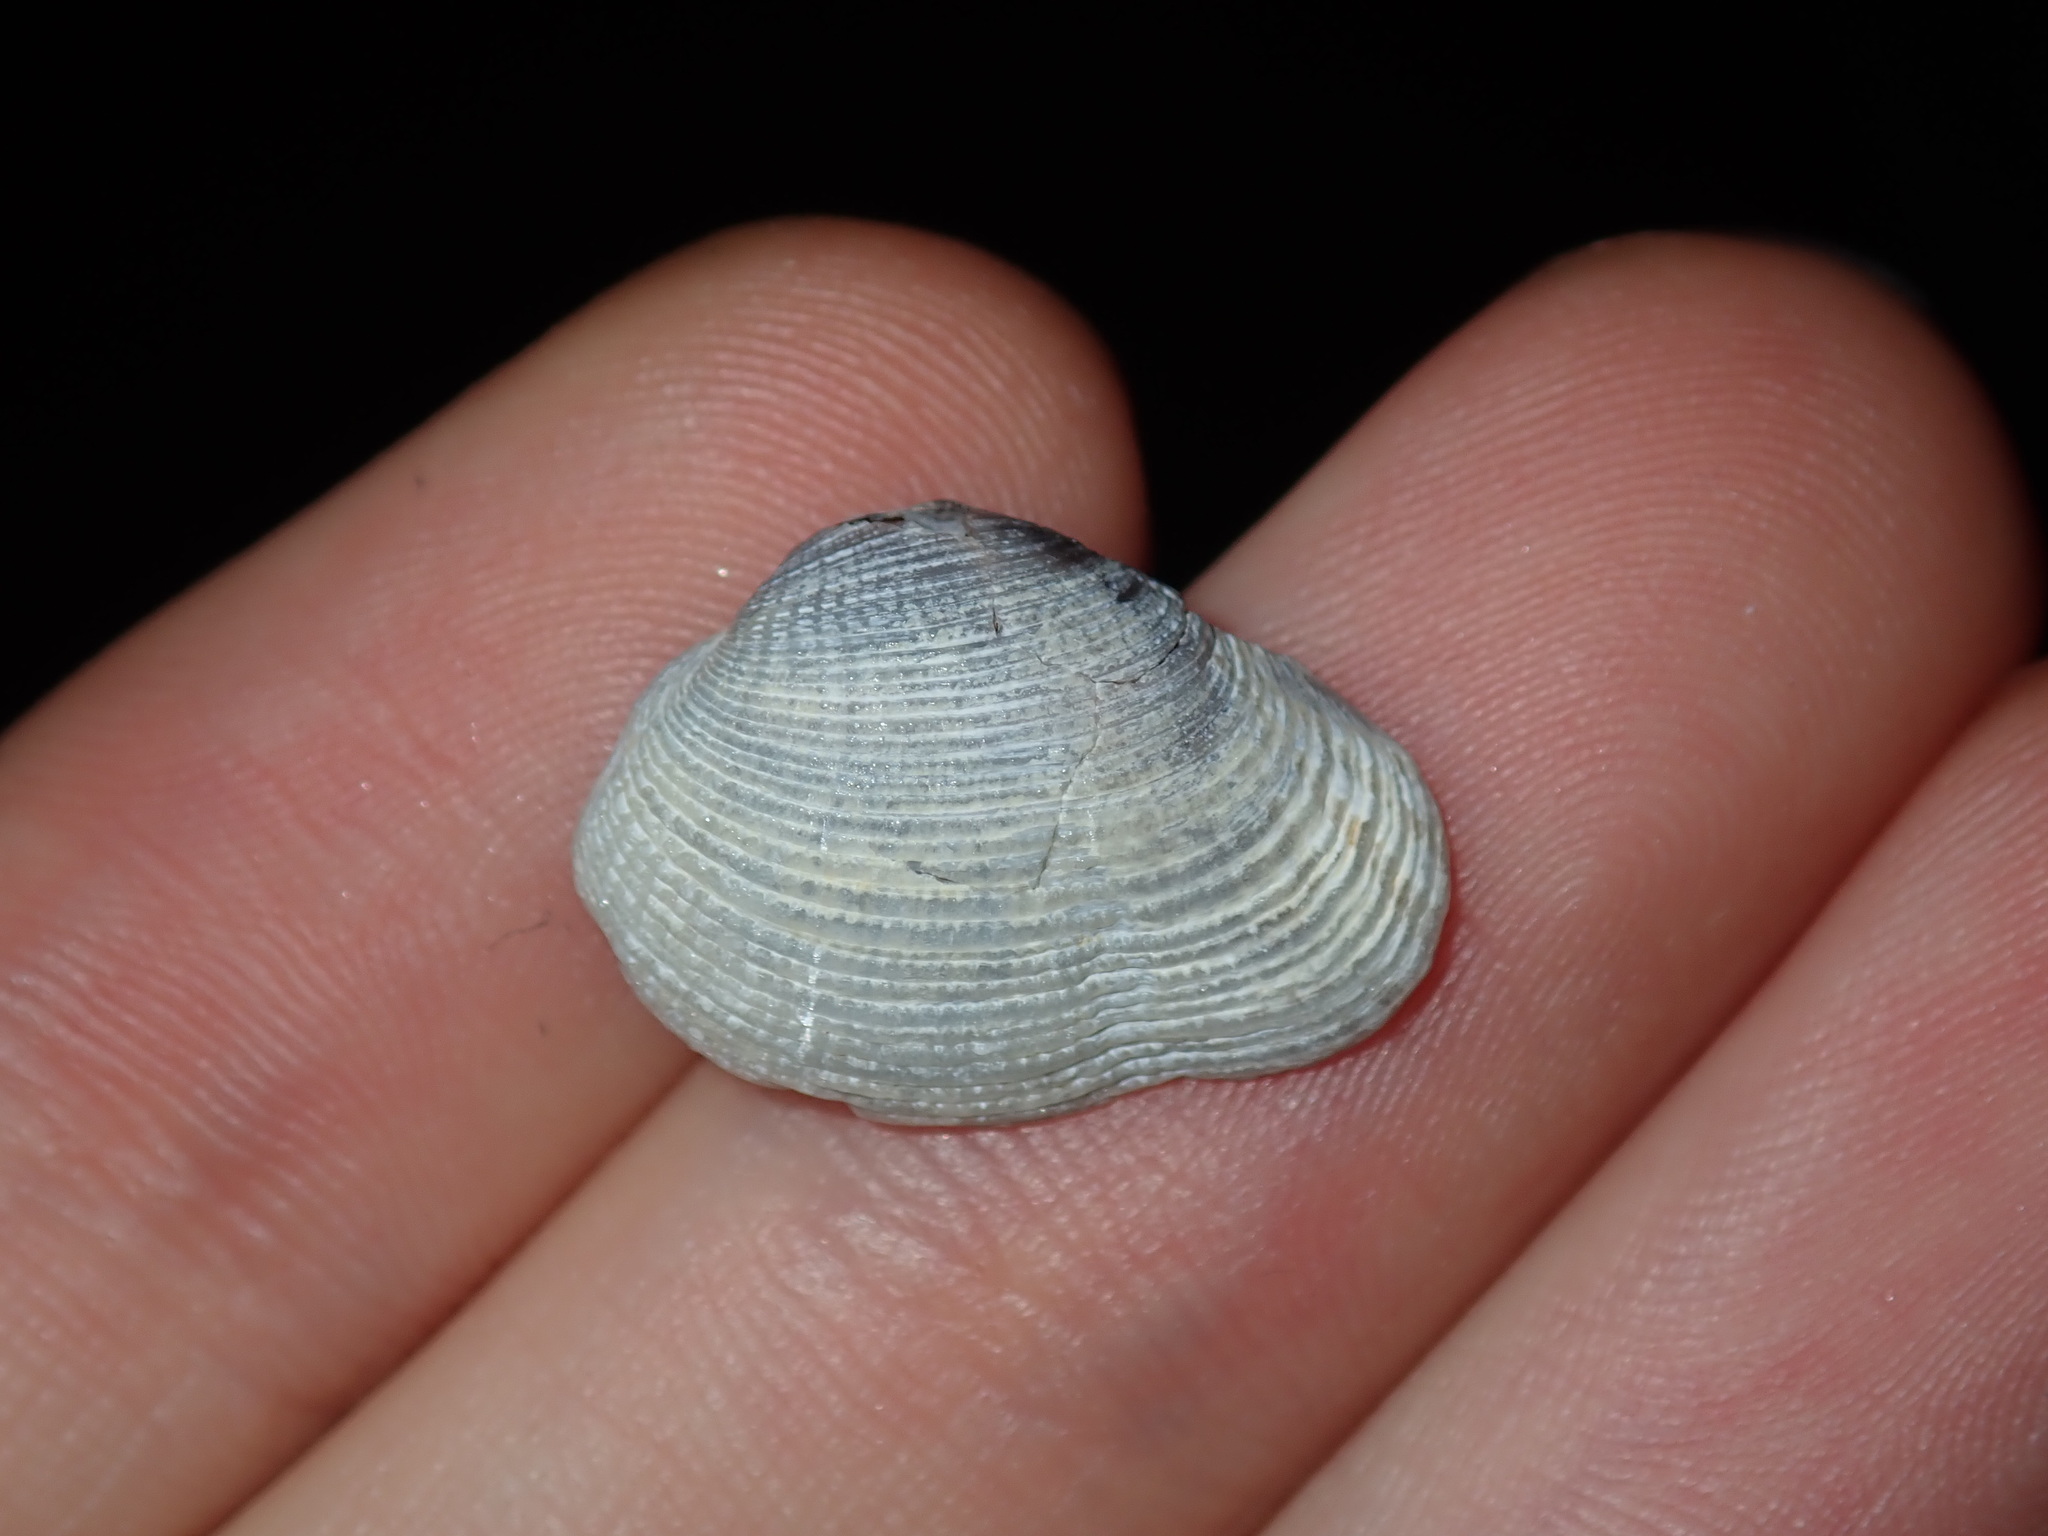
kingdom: Animalia
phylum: Mollusca
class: Bivalvia
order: Venerida
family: Veneridae
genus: Irus
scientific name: Irus cumingii
